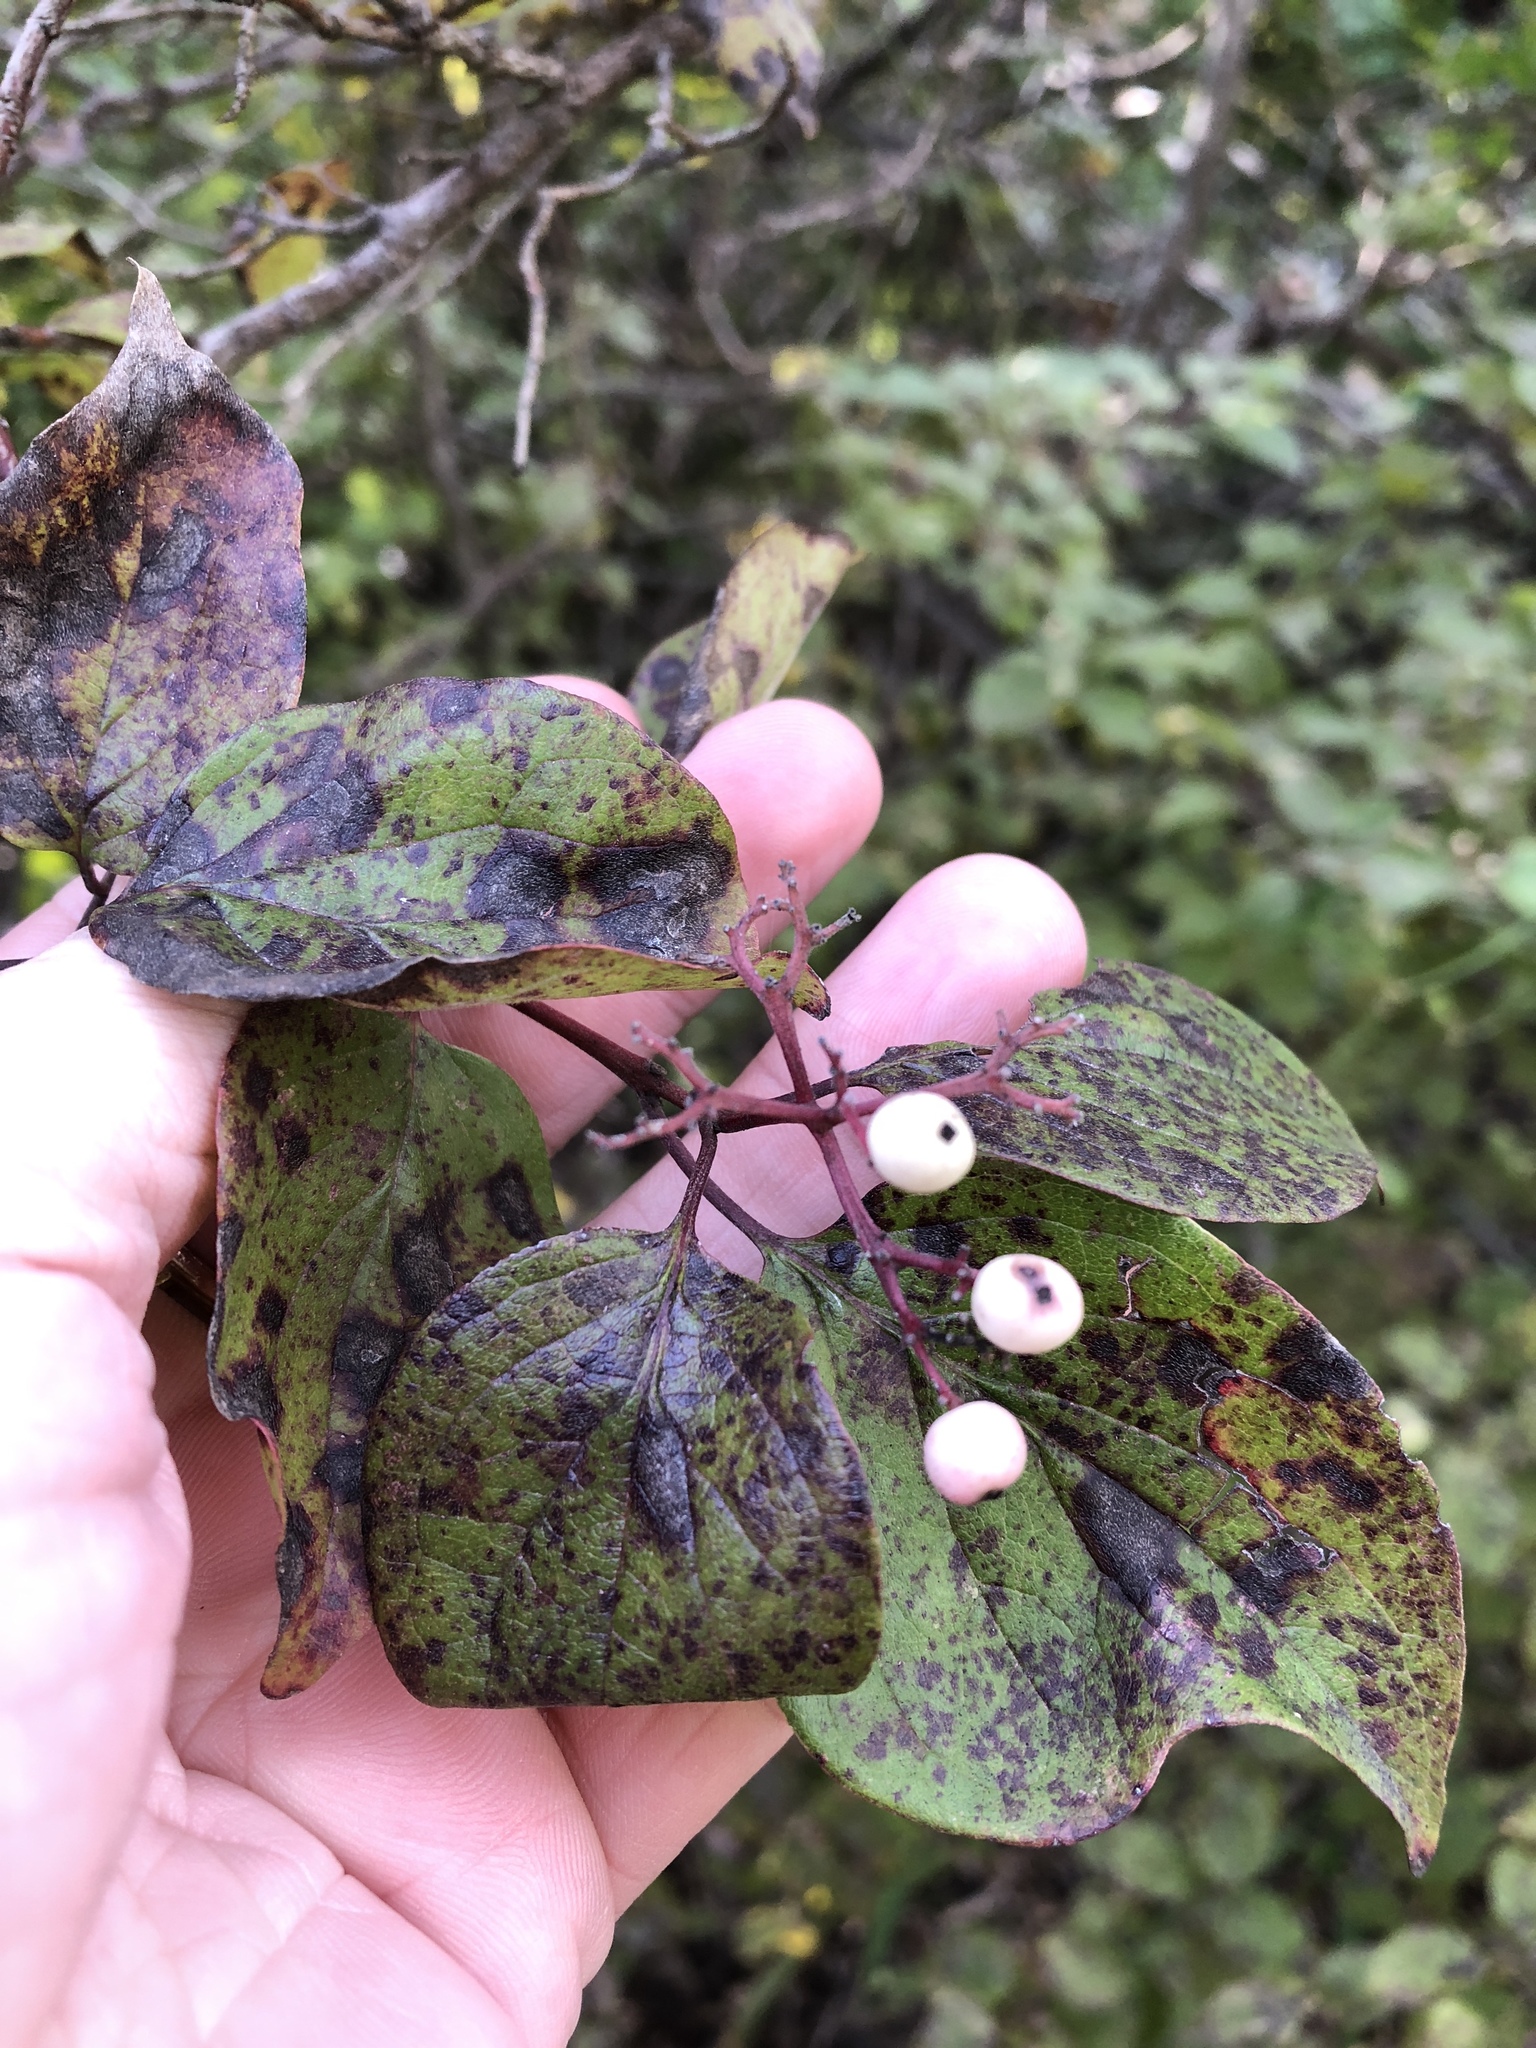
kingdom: Plantae
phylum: Tracheophyta
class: Magnoliopsida
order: Cornales
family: Cornaceae
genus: Cornus
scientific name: Cornus drummondii
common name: Rough-leaf dogwood
